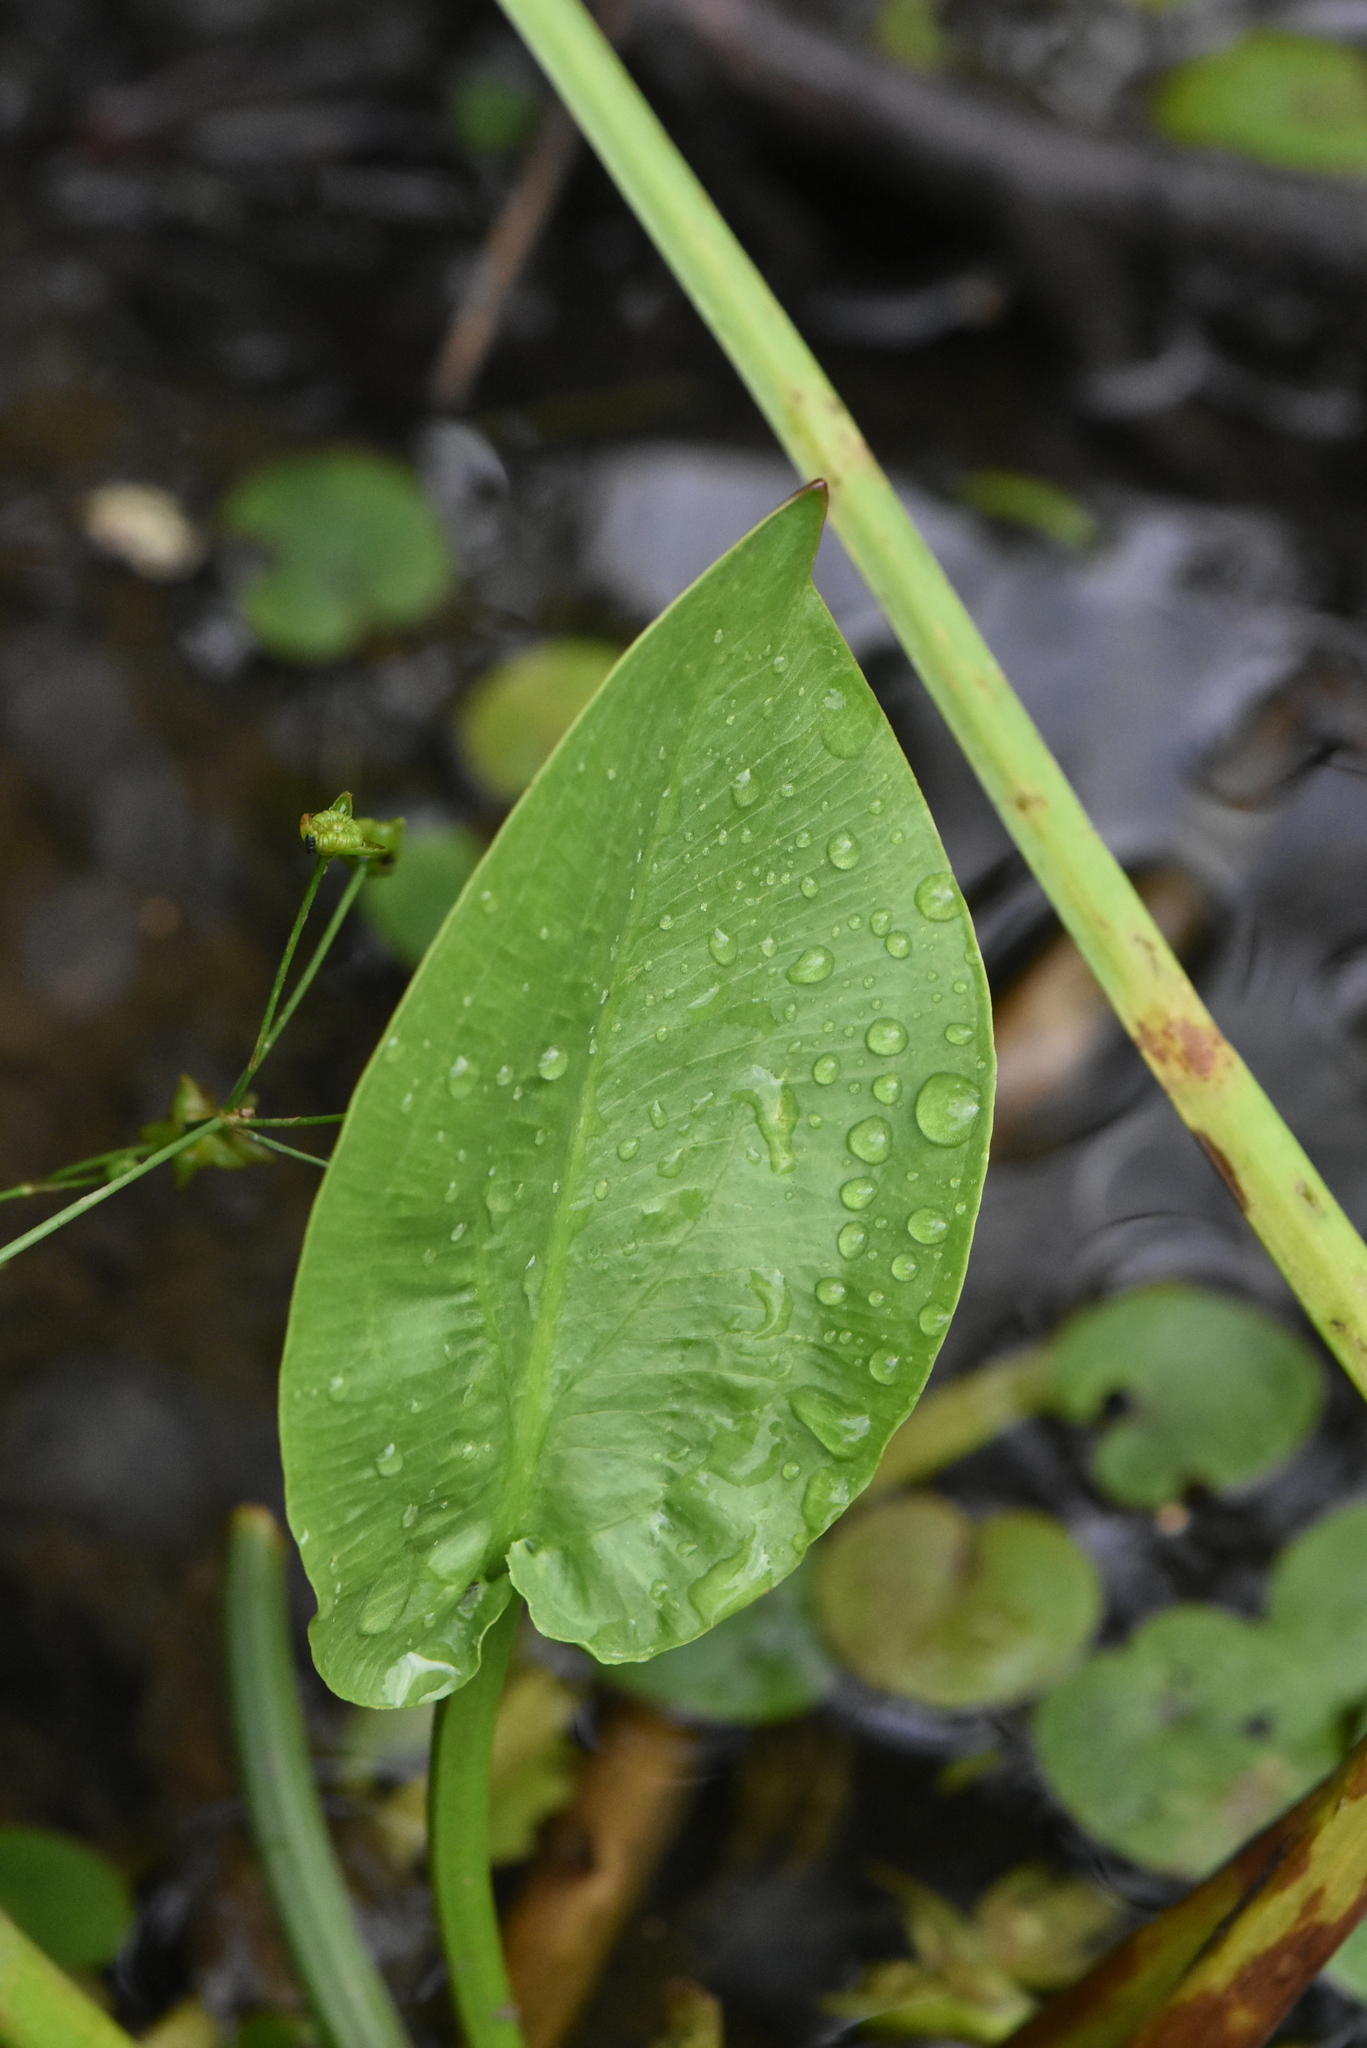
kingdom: Plantae
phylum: Tracheophyta
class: Liliopsida
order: Alismatales
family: Alismataceae
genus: Alisma
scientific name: Alisma plantago-aquatica
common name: Water-plantain
